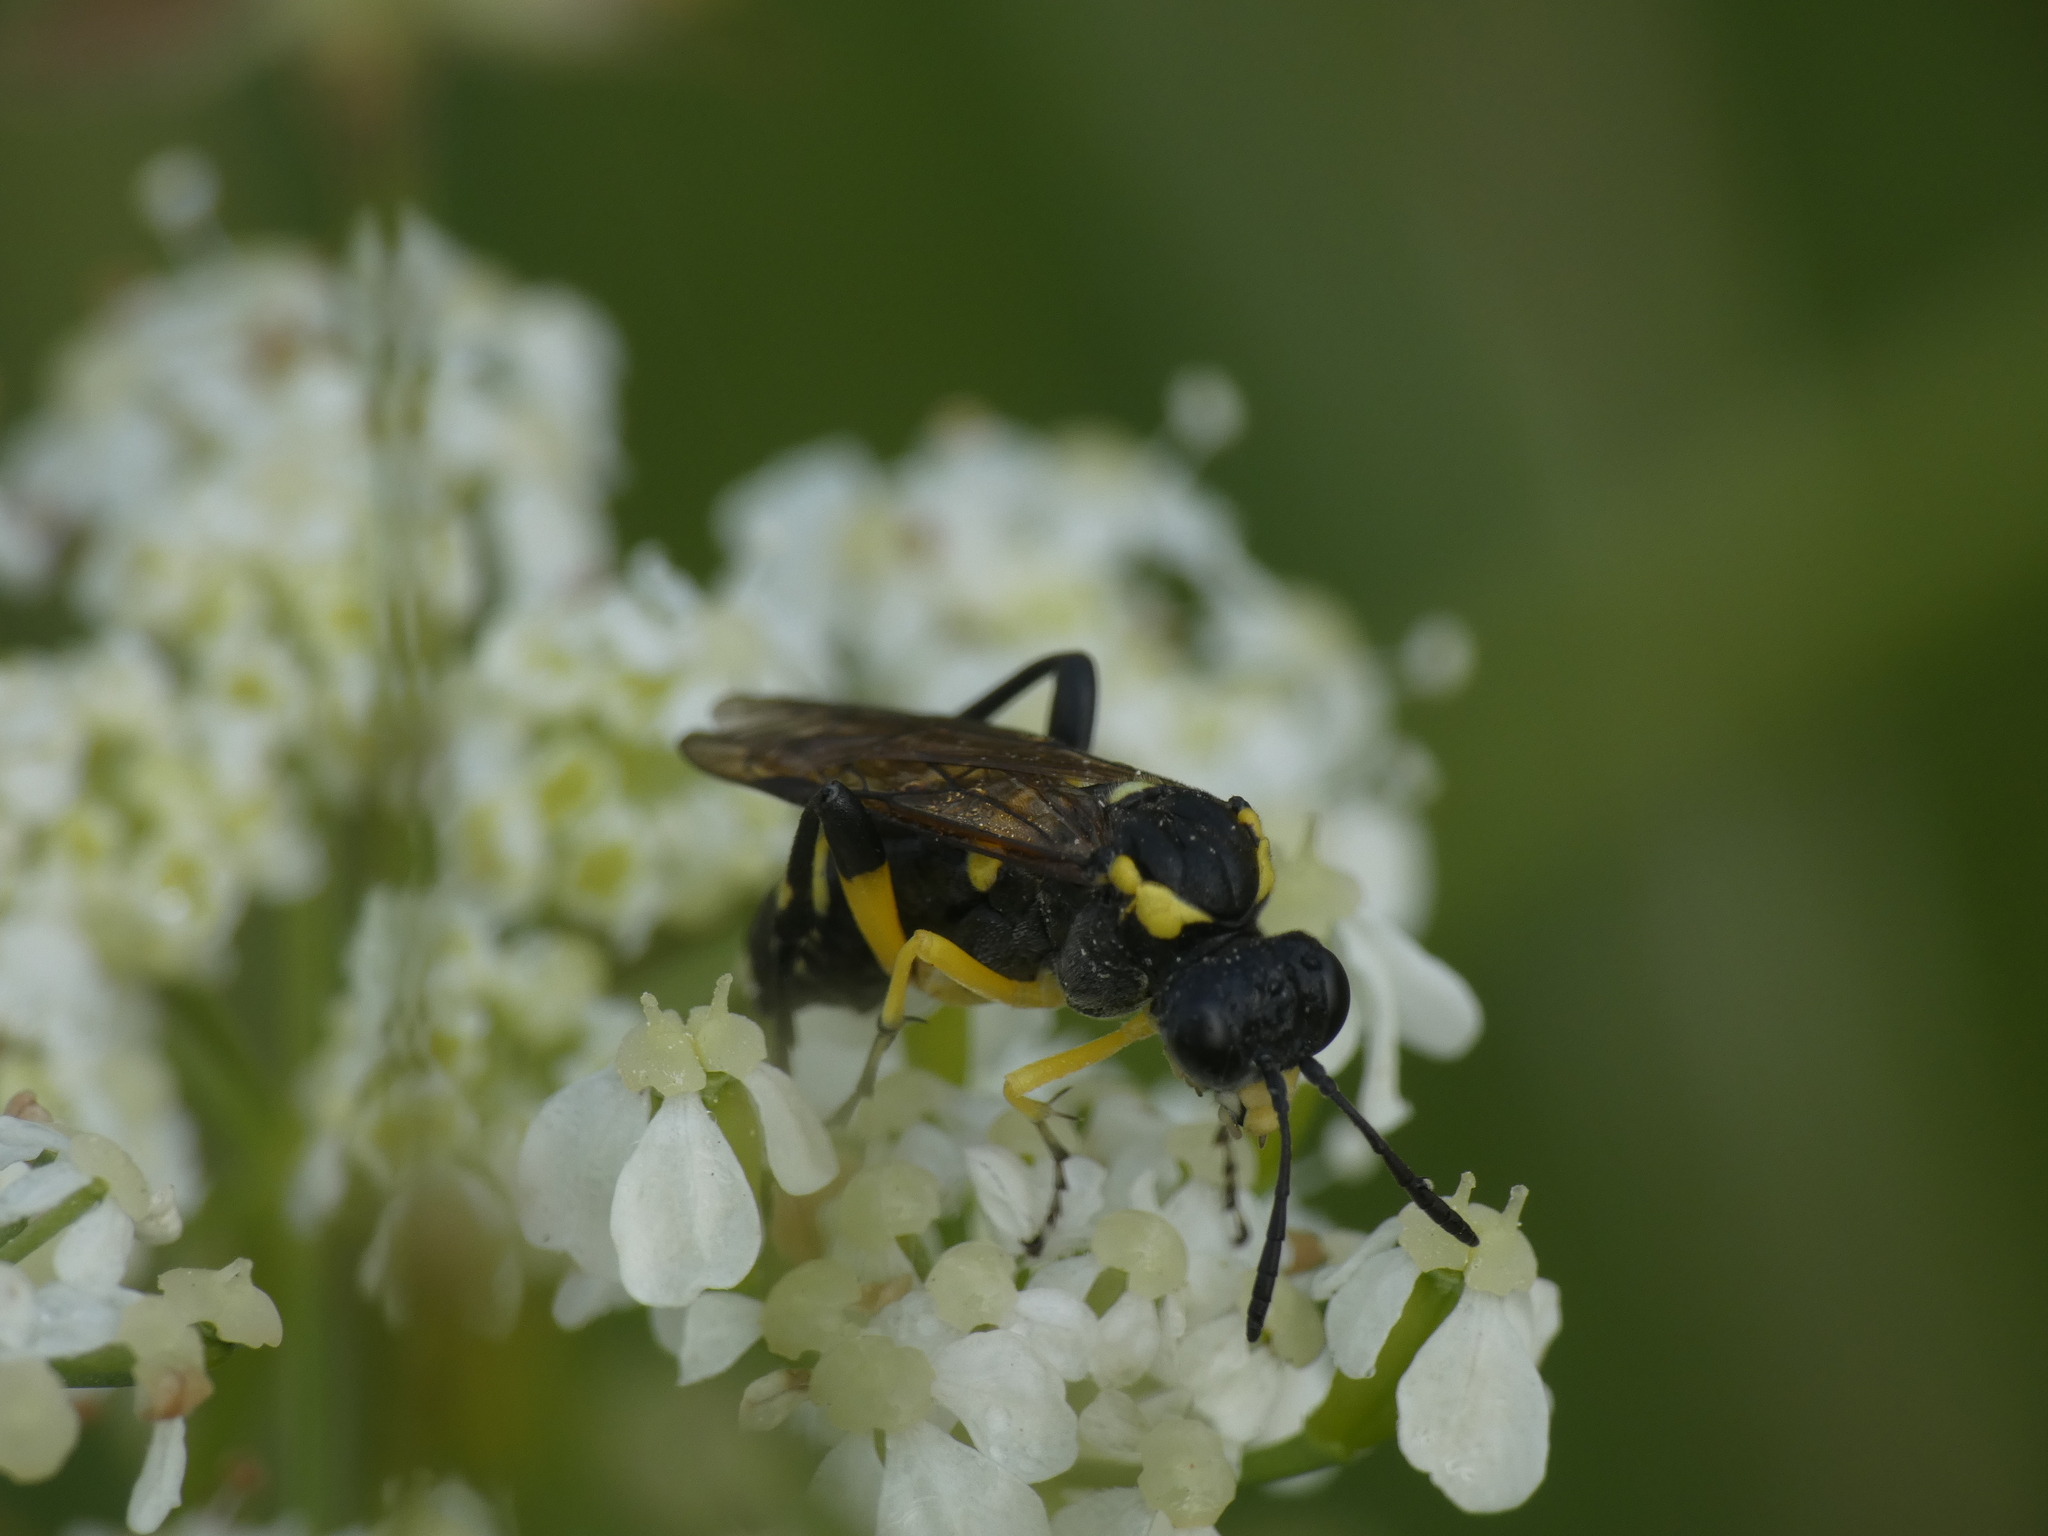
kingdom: Animalia
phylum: Arthropoda
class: Insecta
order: Hymenoptera
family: Tenthredinidae
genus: Macrophya
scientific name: Macrophya montana
